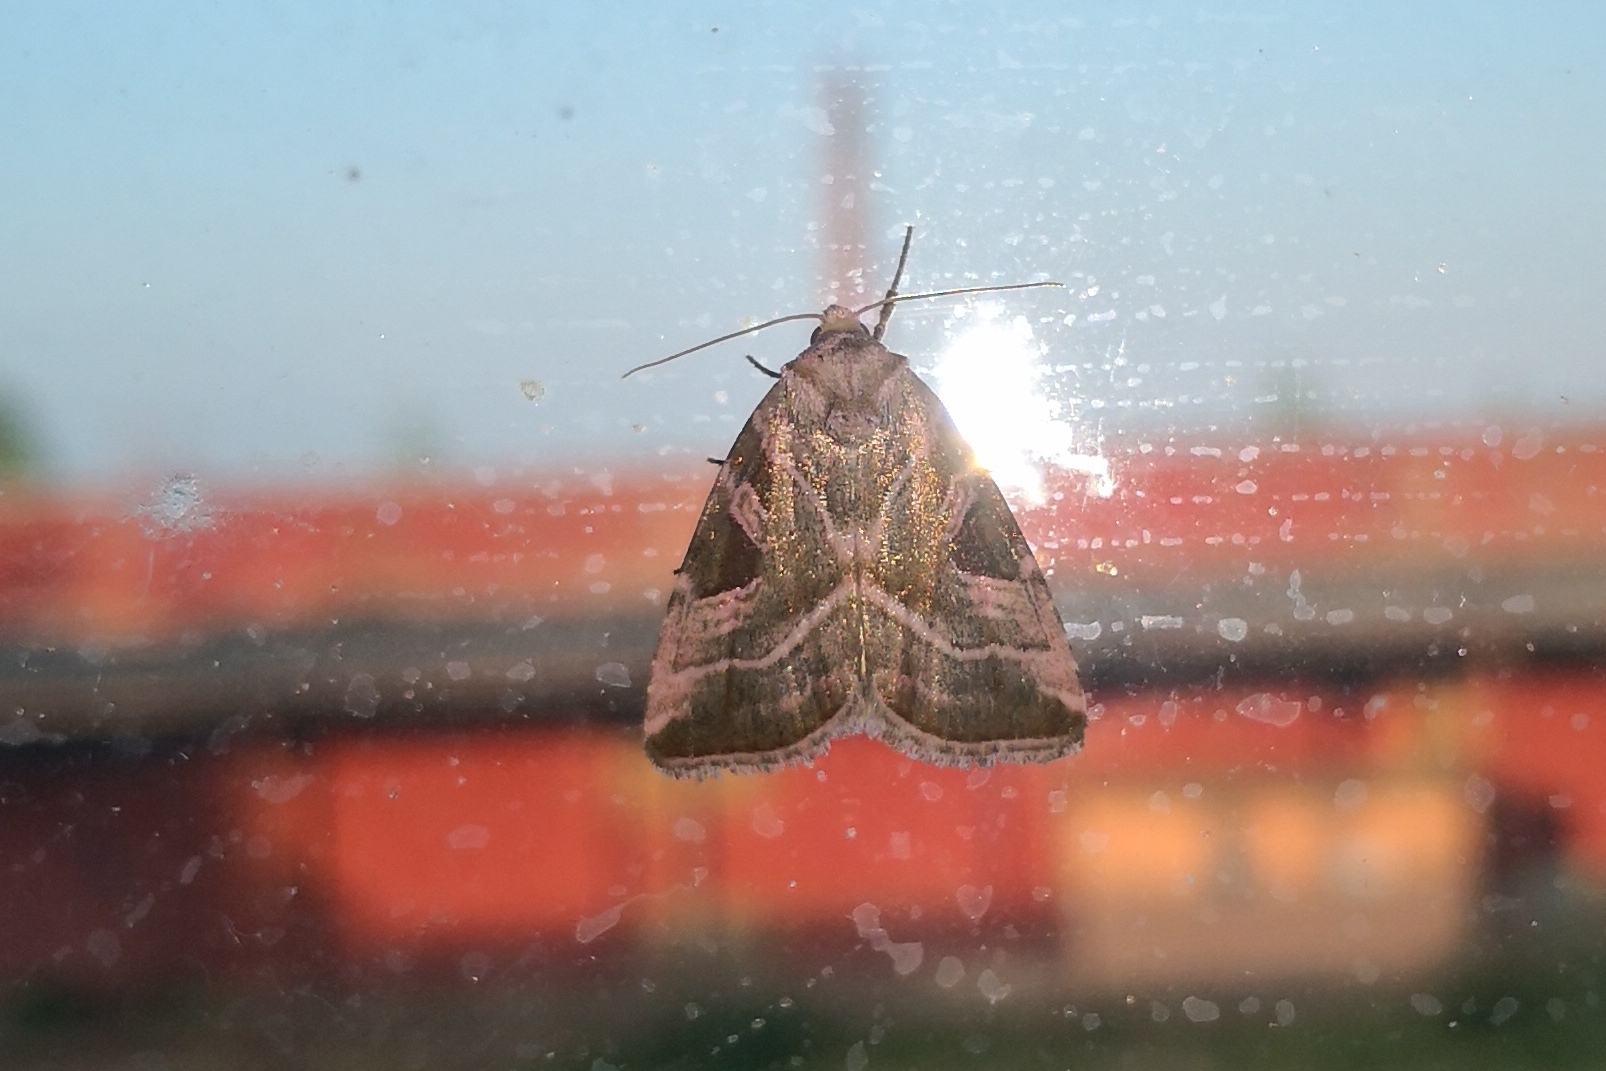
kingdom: Animalia
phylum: Arthropoda
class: Insecta
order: Lepidoptera
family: Noctuidae
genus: Eucarta
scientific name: Eucarta virgo
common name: Silvery gem
